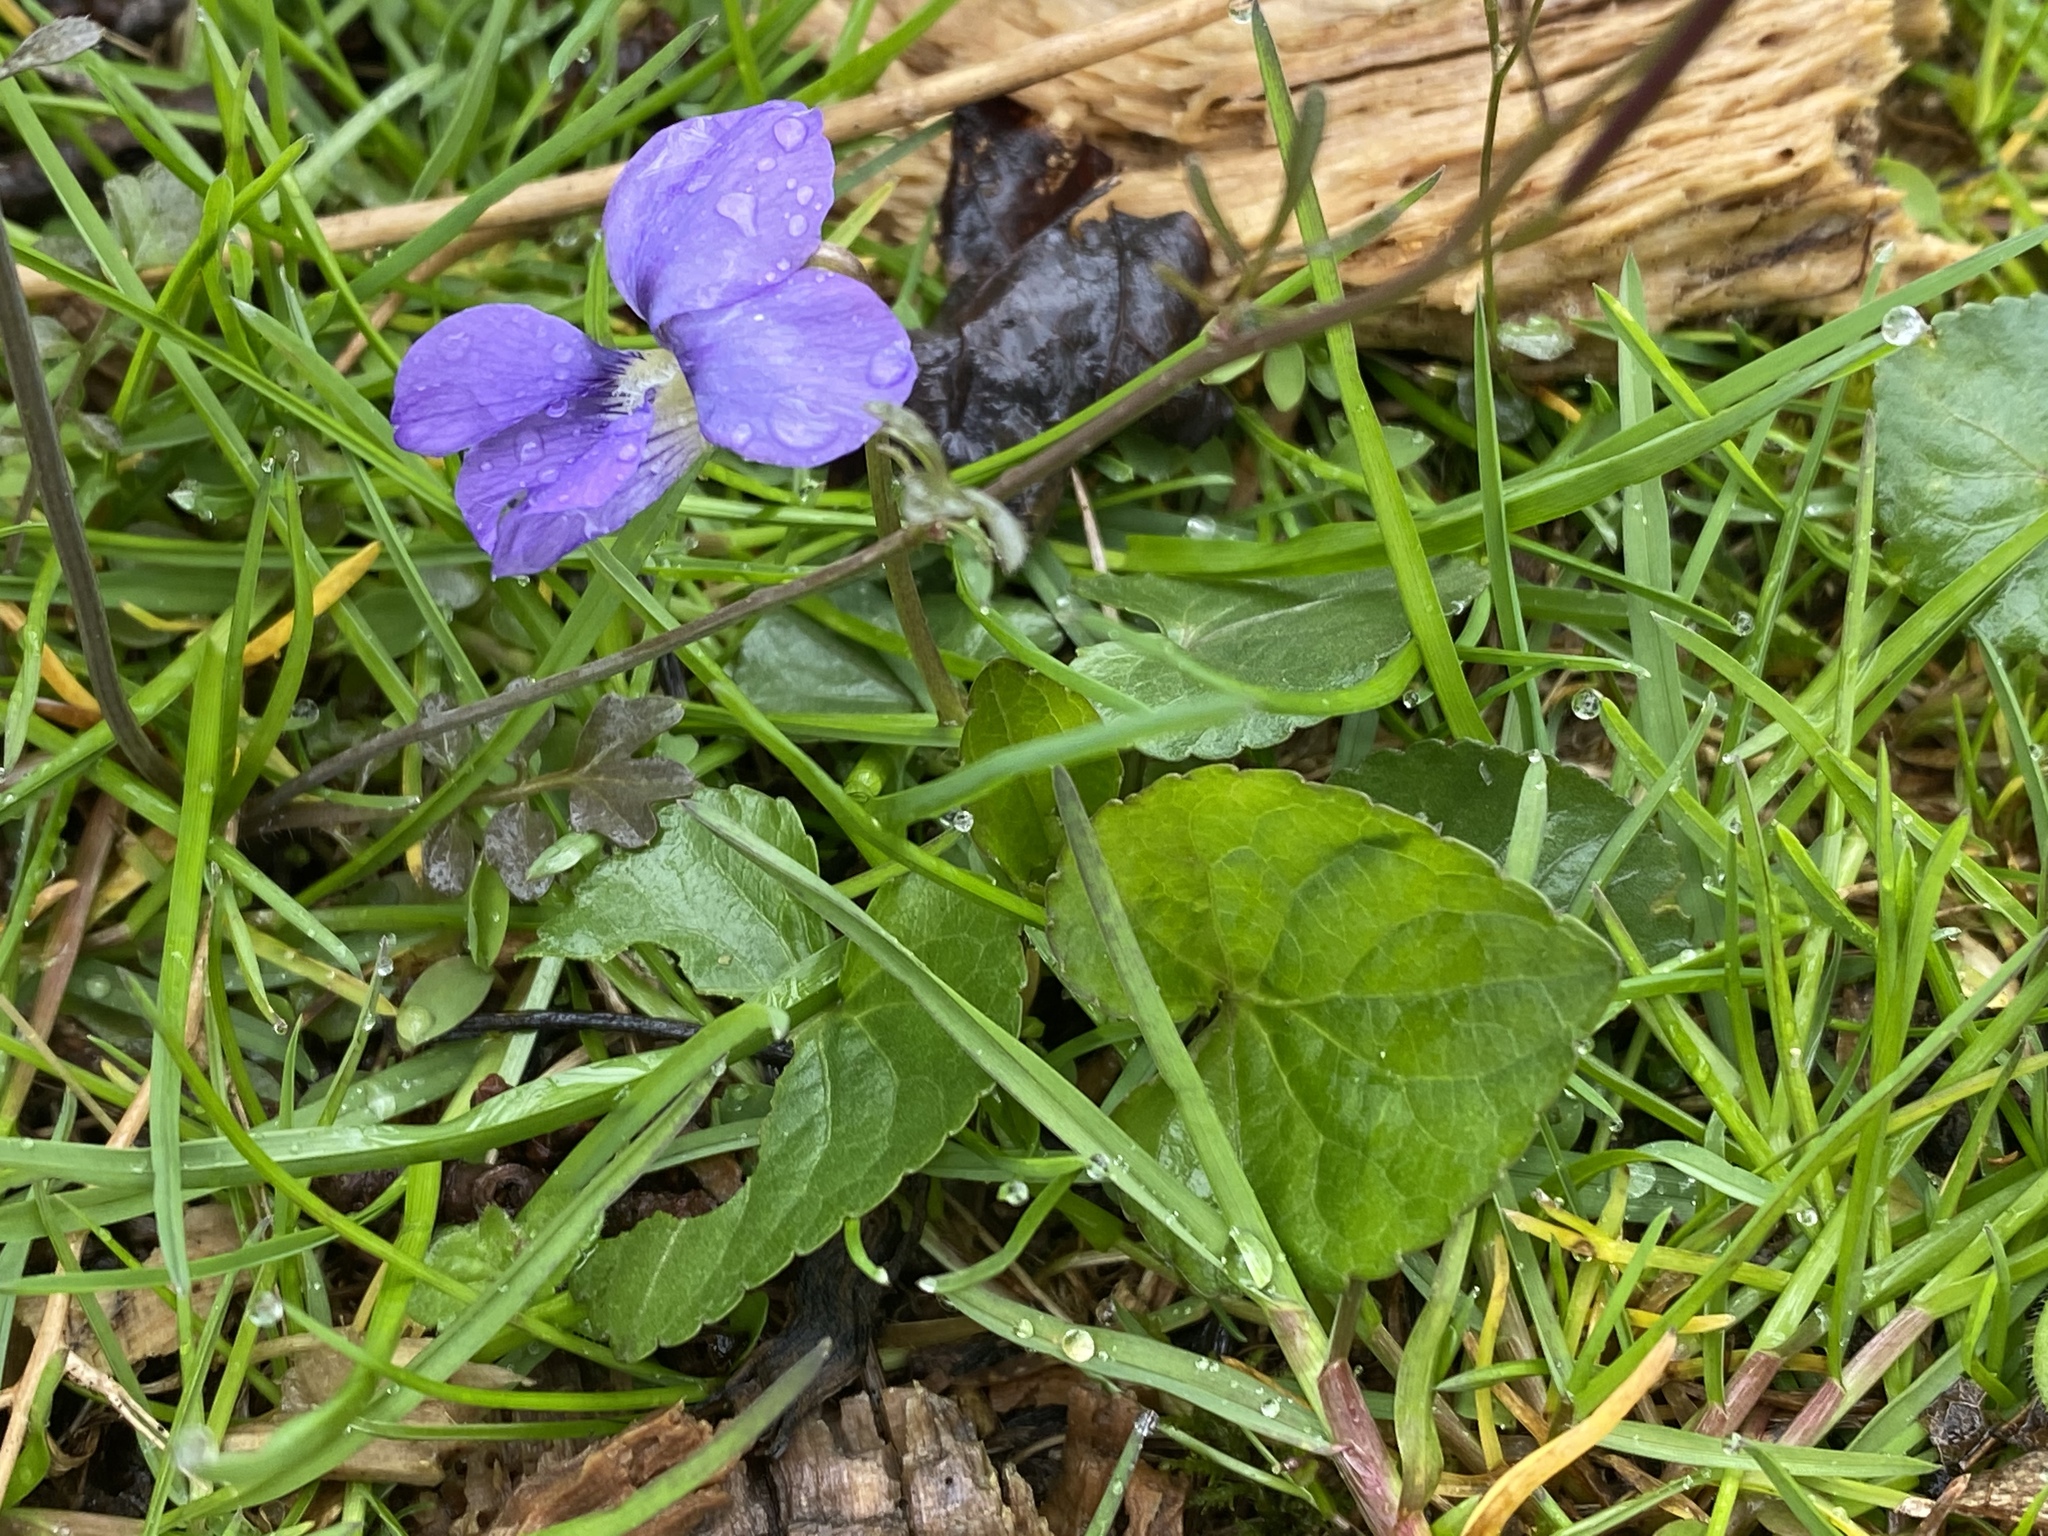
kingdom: Plantae
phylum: Tracheophyta
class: Magnoliopsida
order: Malpighiales
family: Violaceae
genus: Viola
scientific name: Viola sororia
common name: Dooryard violet
